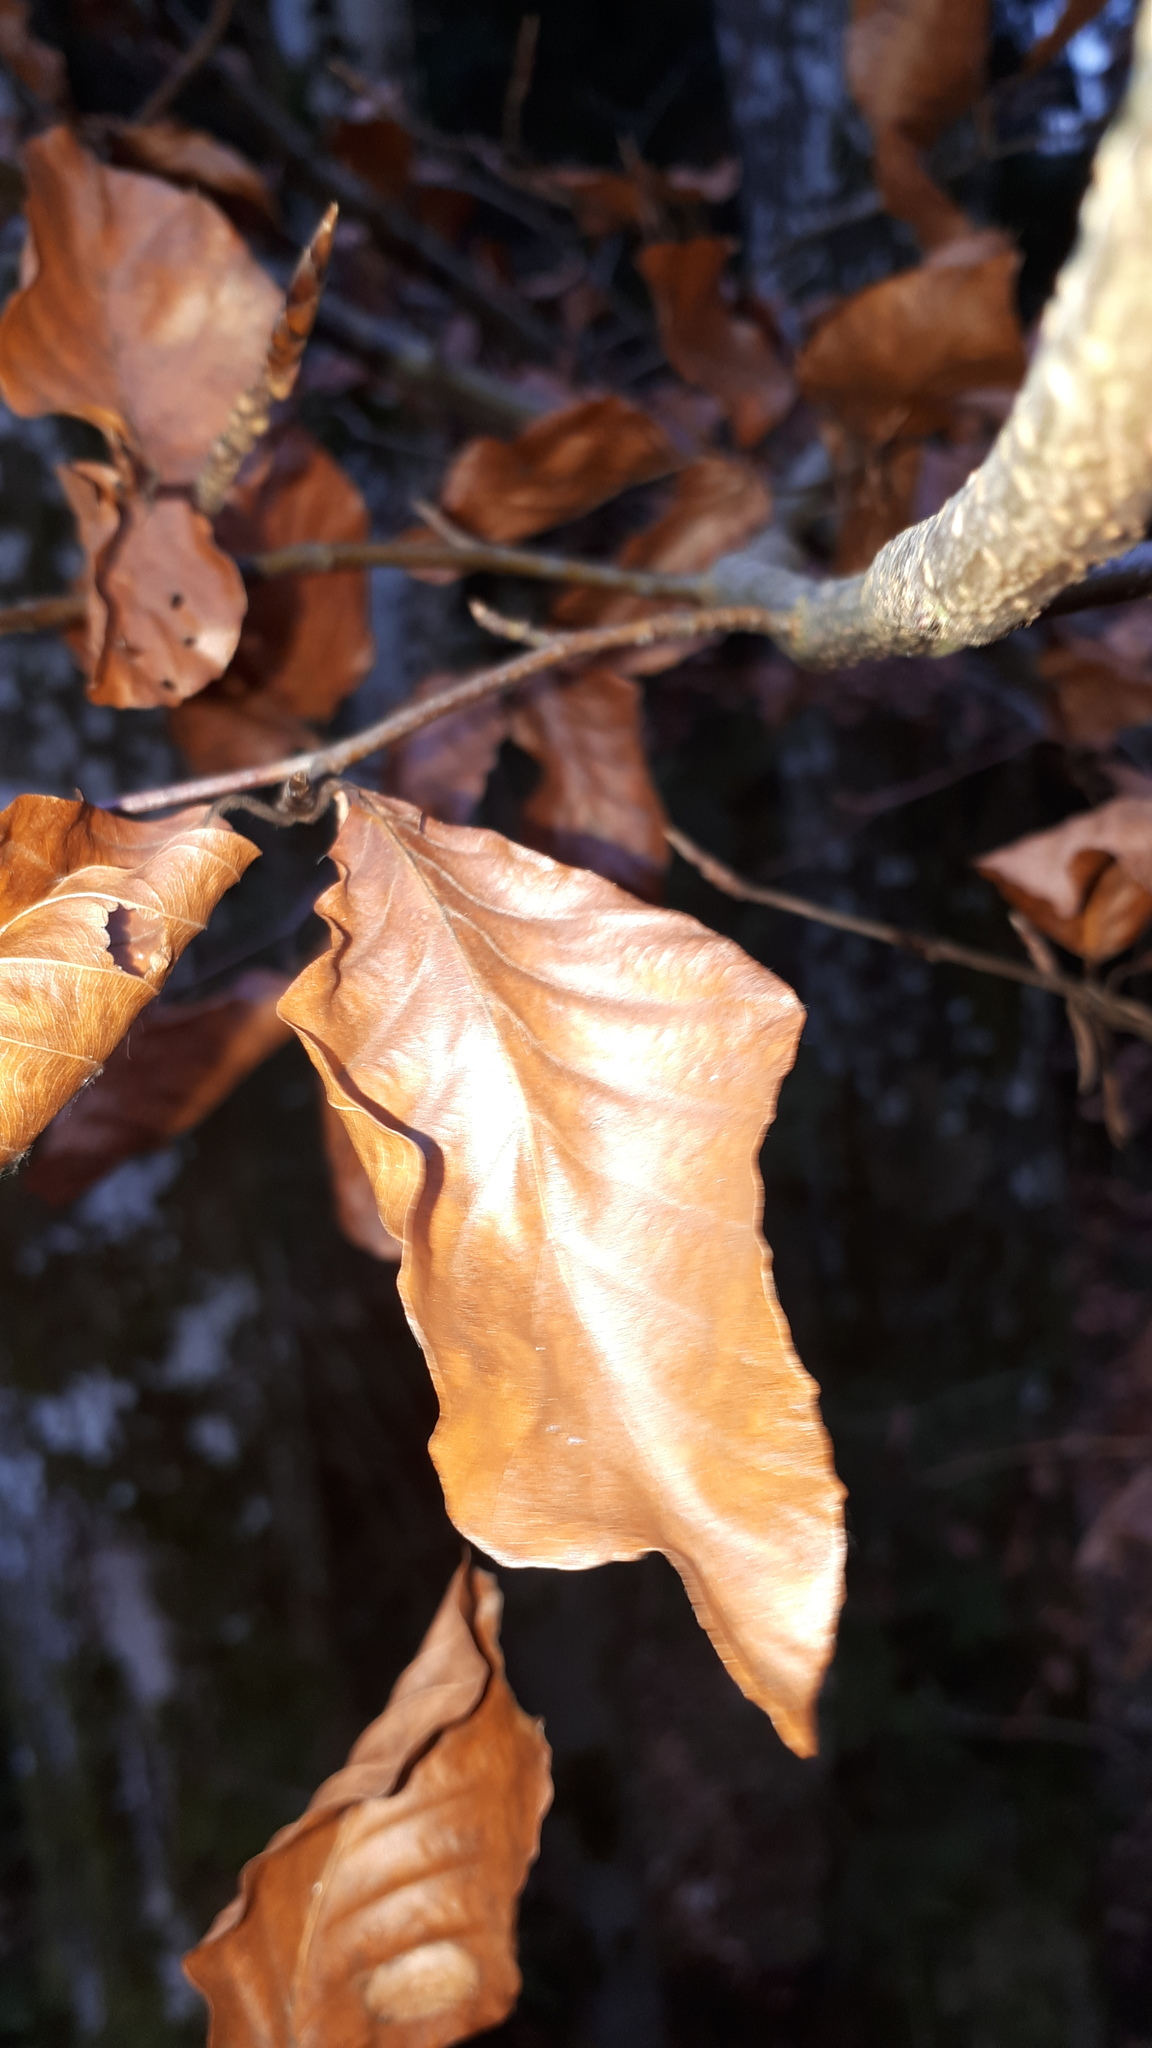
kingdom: Plantae
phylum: Tracheophyta
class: Magnoliopsida
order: Fagales
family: Fagaceae
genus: Fagus
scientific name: Fagus sylvatica
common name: Beech
